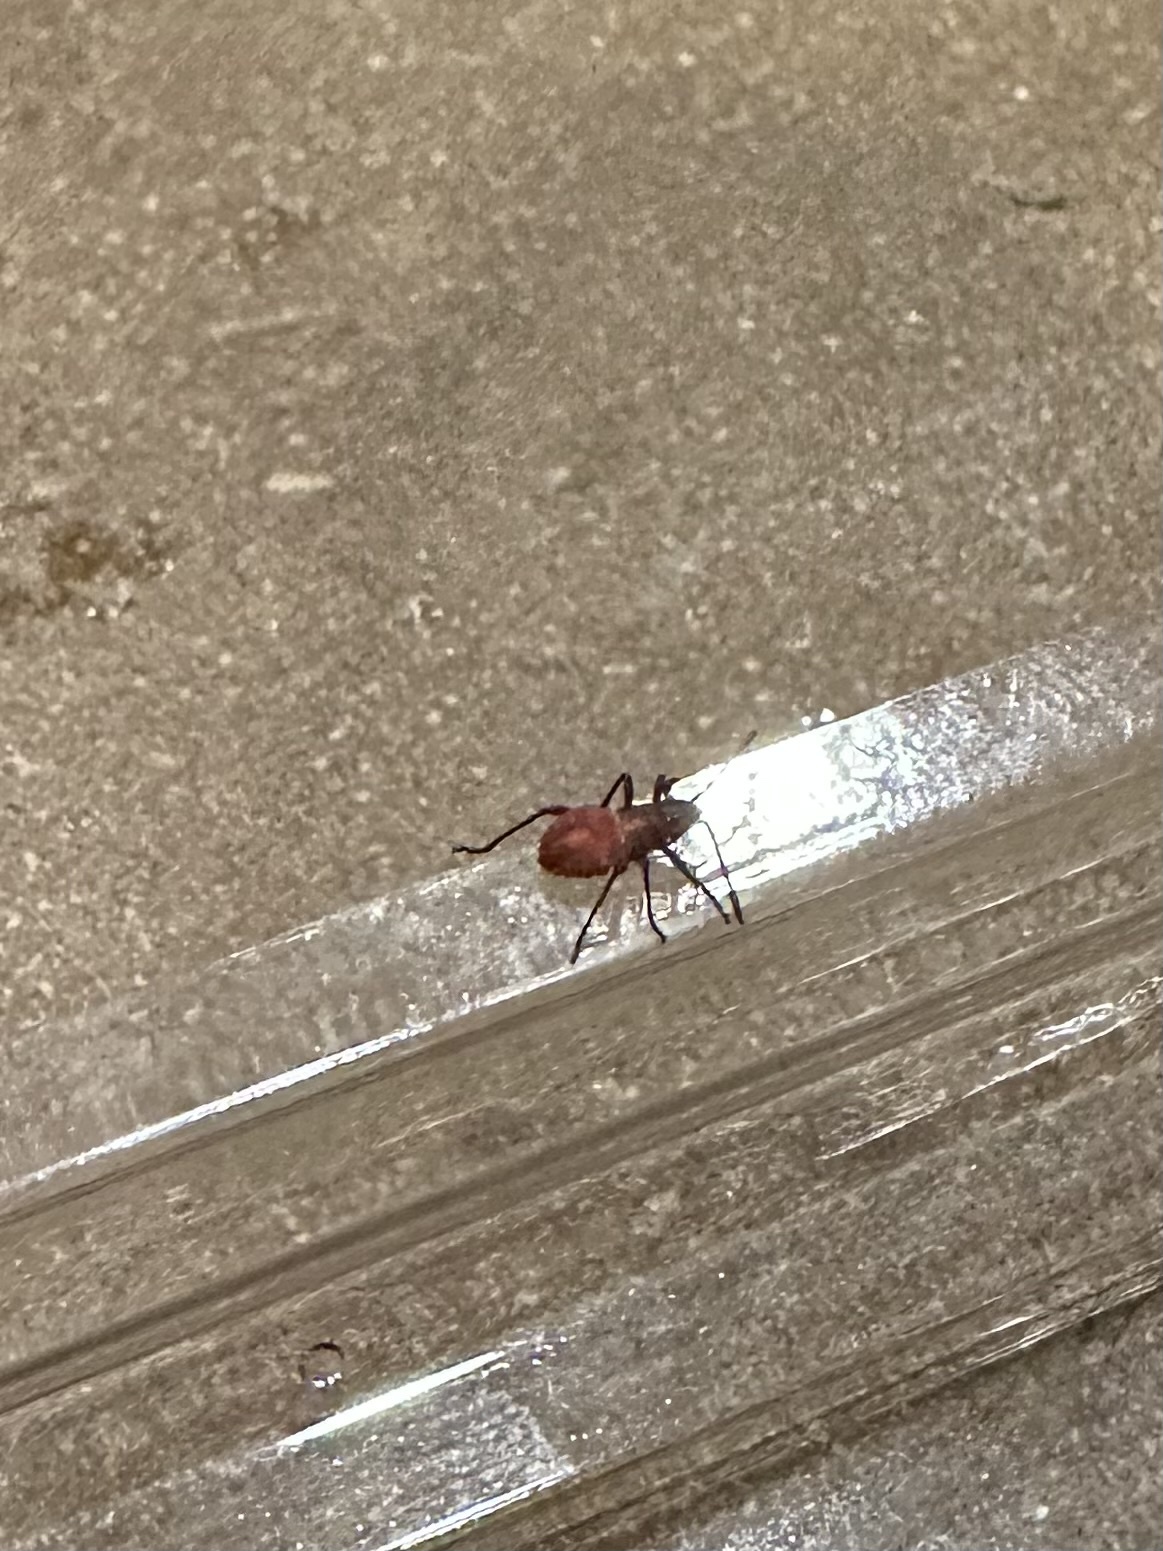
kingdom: Animalia
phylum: Arthropoda
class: Insecta
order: Hemiptera
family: Rhopalidae
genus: Boisea
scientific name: Boisea rubrolineata
